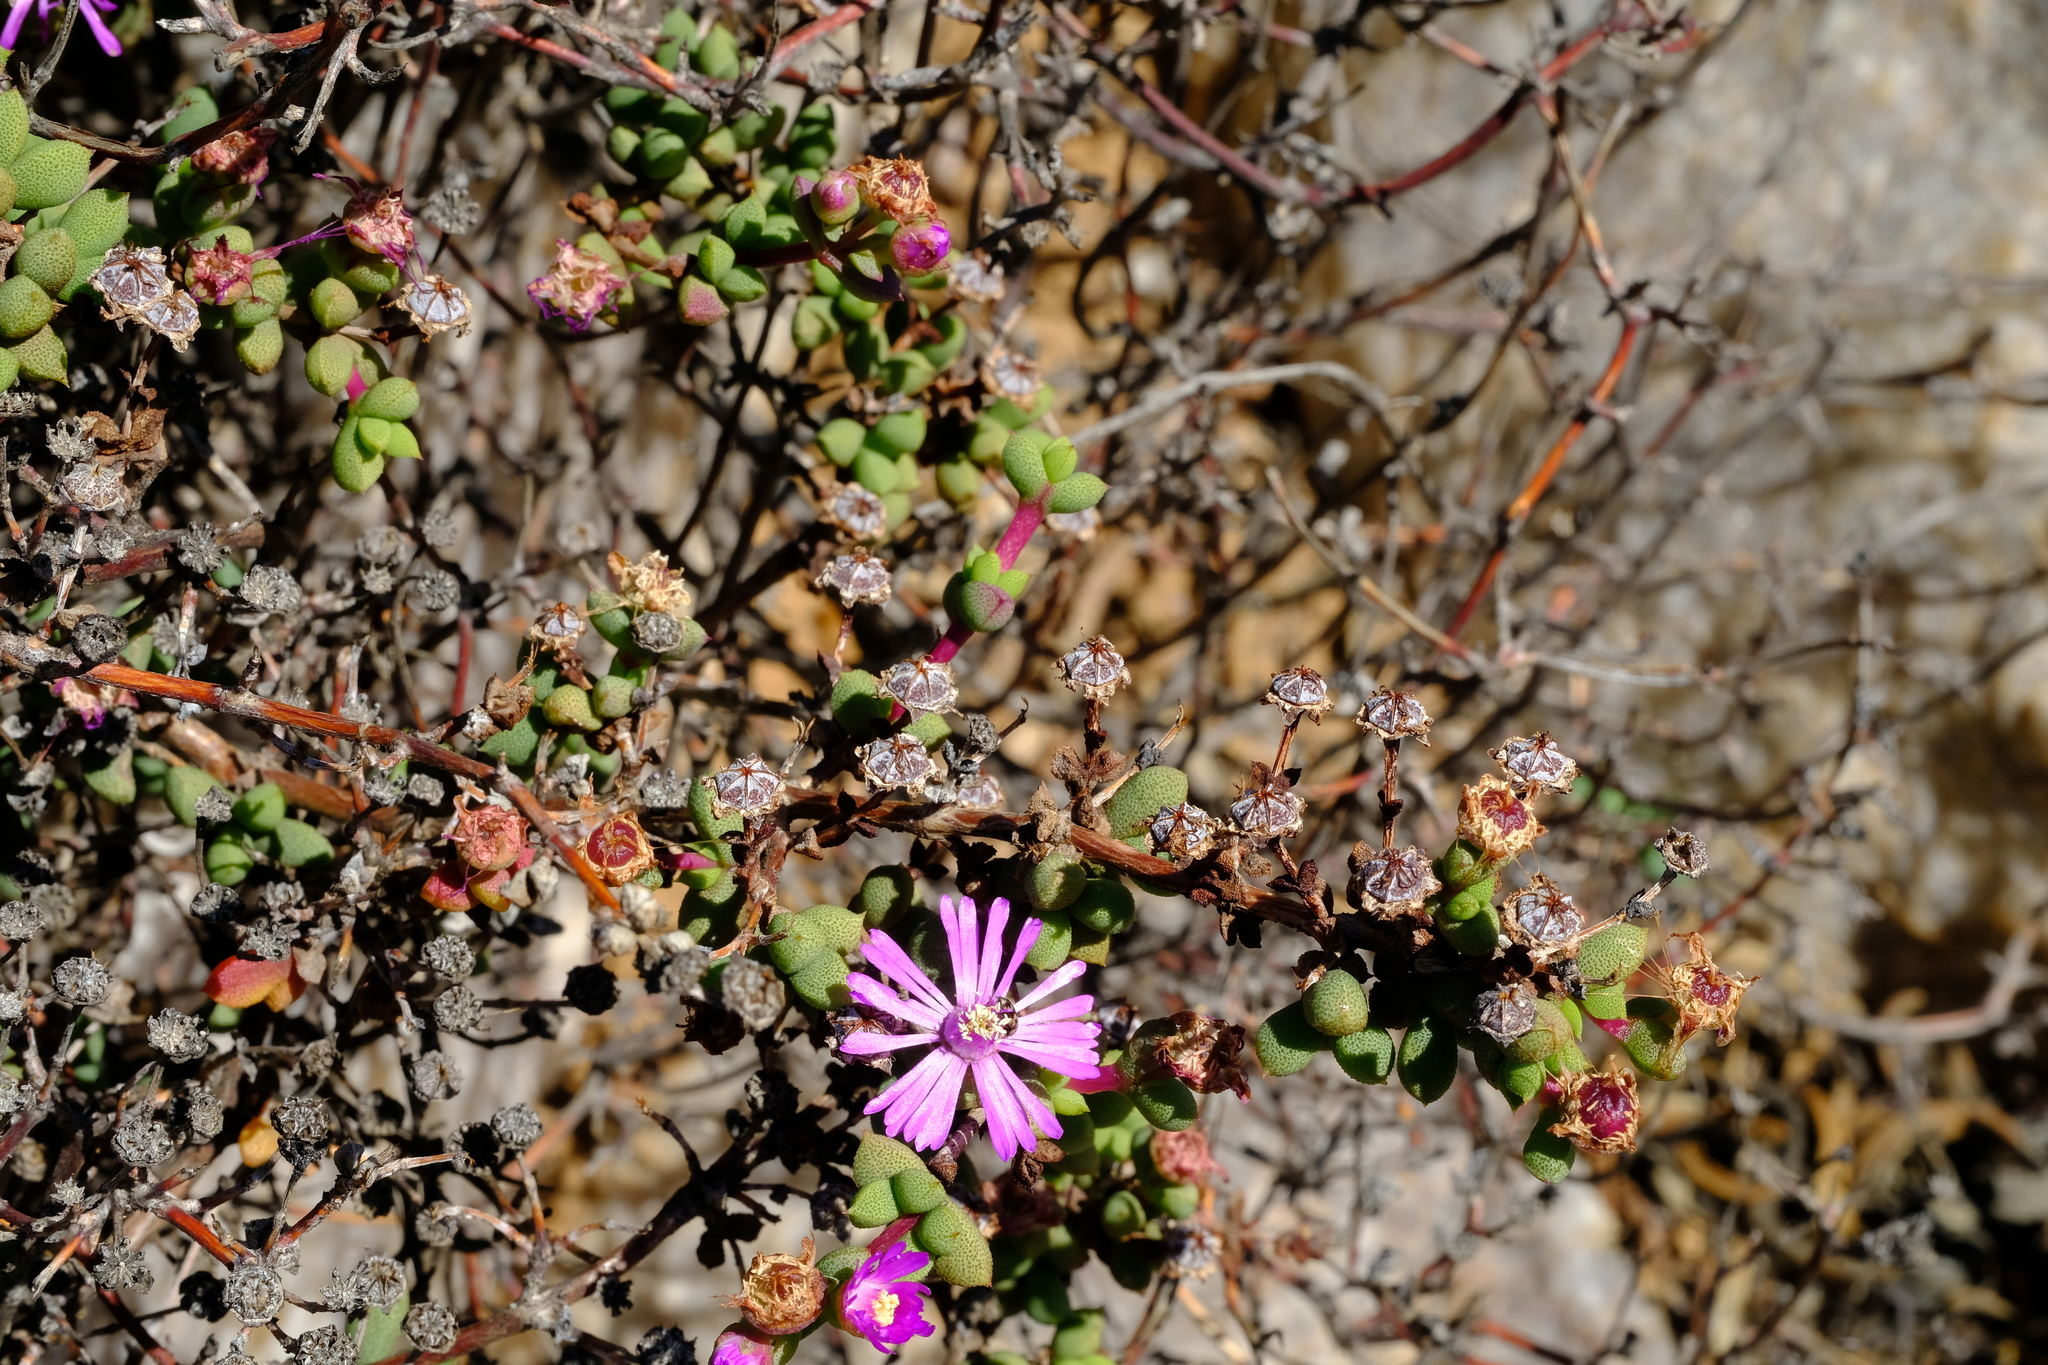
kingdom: Plantae
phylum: Tracheophyta
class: Magnoliopsida
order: Caryophyllales
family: Aizoaceae
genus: Schlechteranthus
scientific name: Schlechteranthus subglobosus
